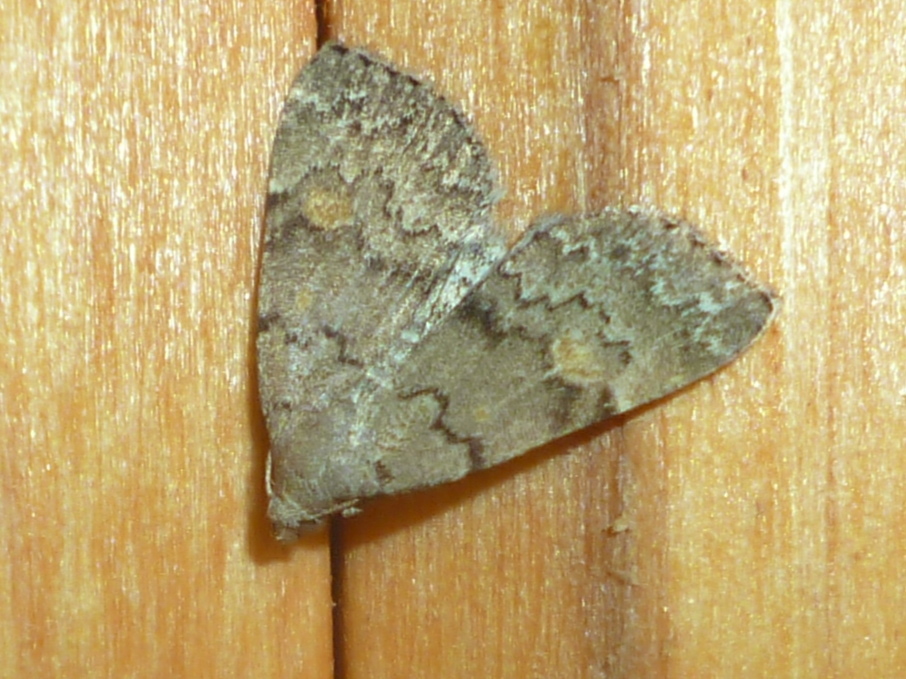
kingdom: Animalia
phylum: Arthropoda
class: Insecta
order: Lepidoptera
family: Erebidae
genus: Idia
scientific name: Idia aemula
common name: Common idia moth
